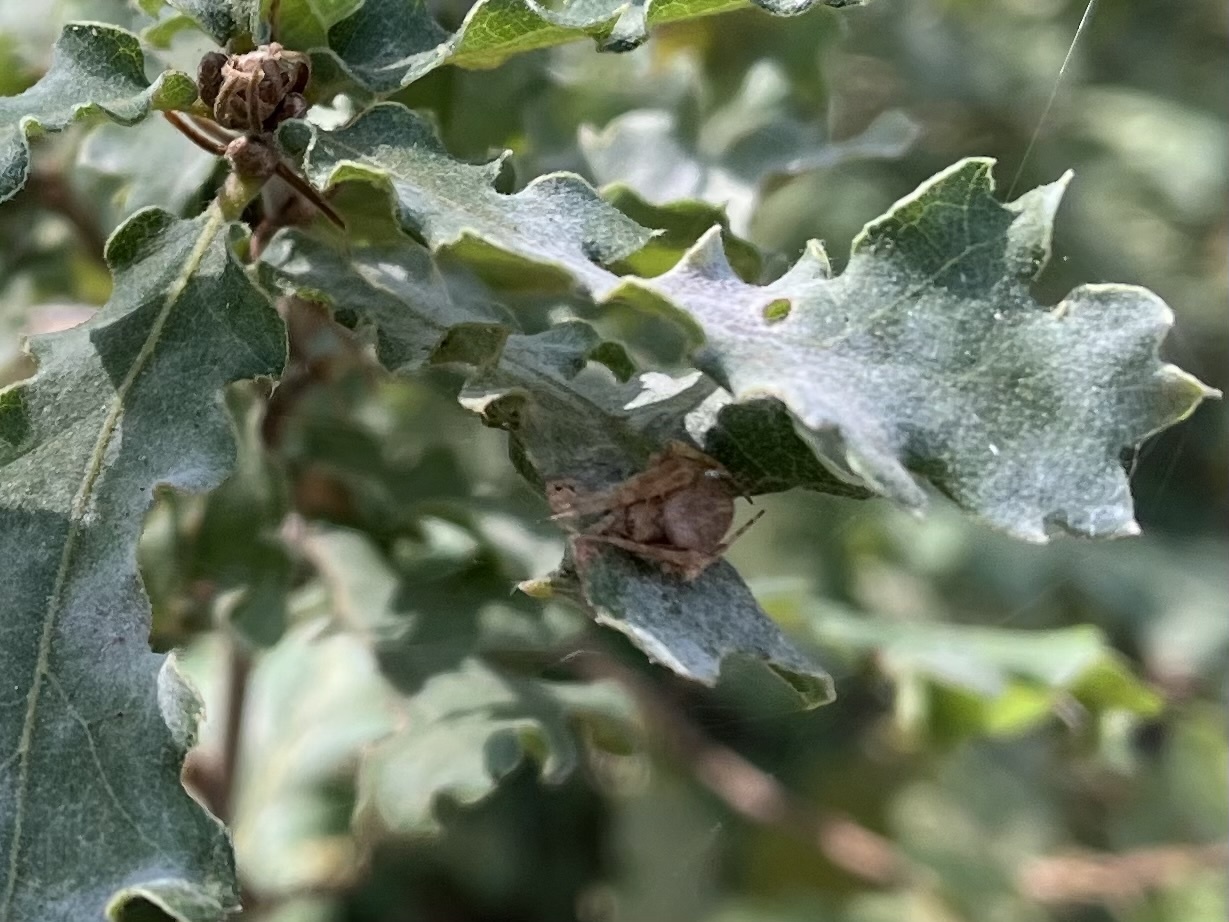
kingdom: Animalia
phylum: Arthropoda
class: Arachnida
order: Araneae
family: Araneidae
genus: Neoscona
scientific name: Neoscona subfusca
